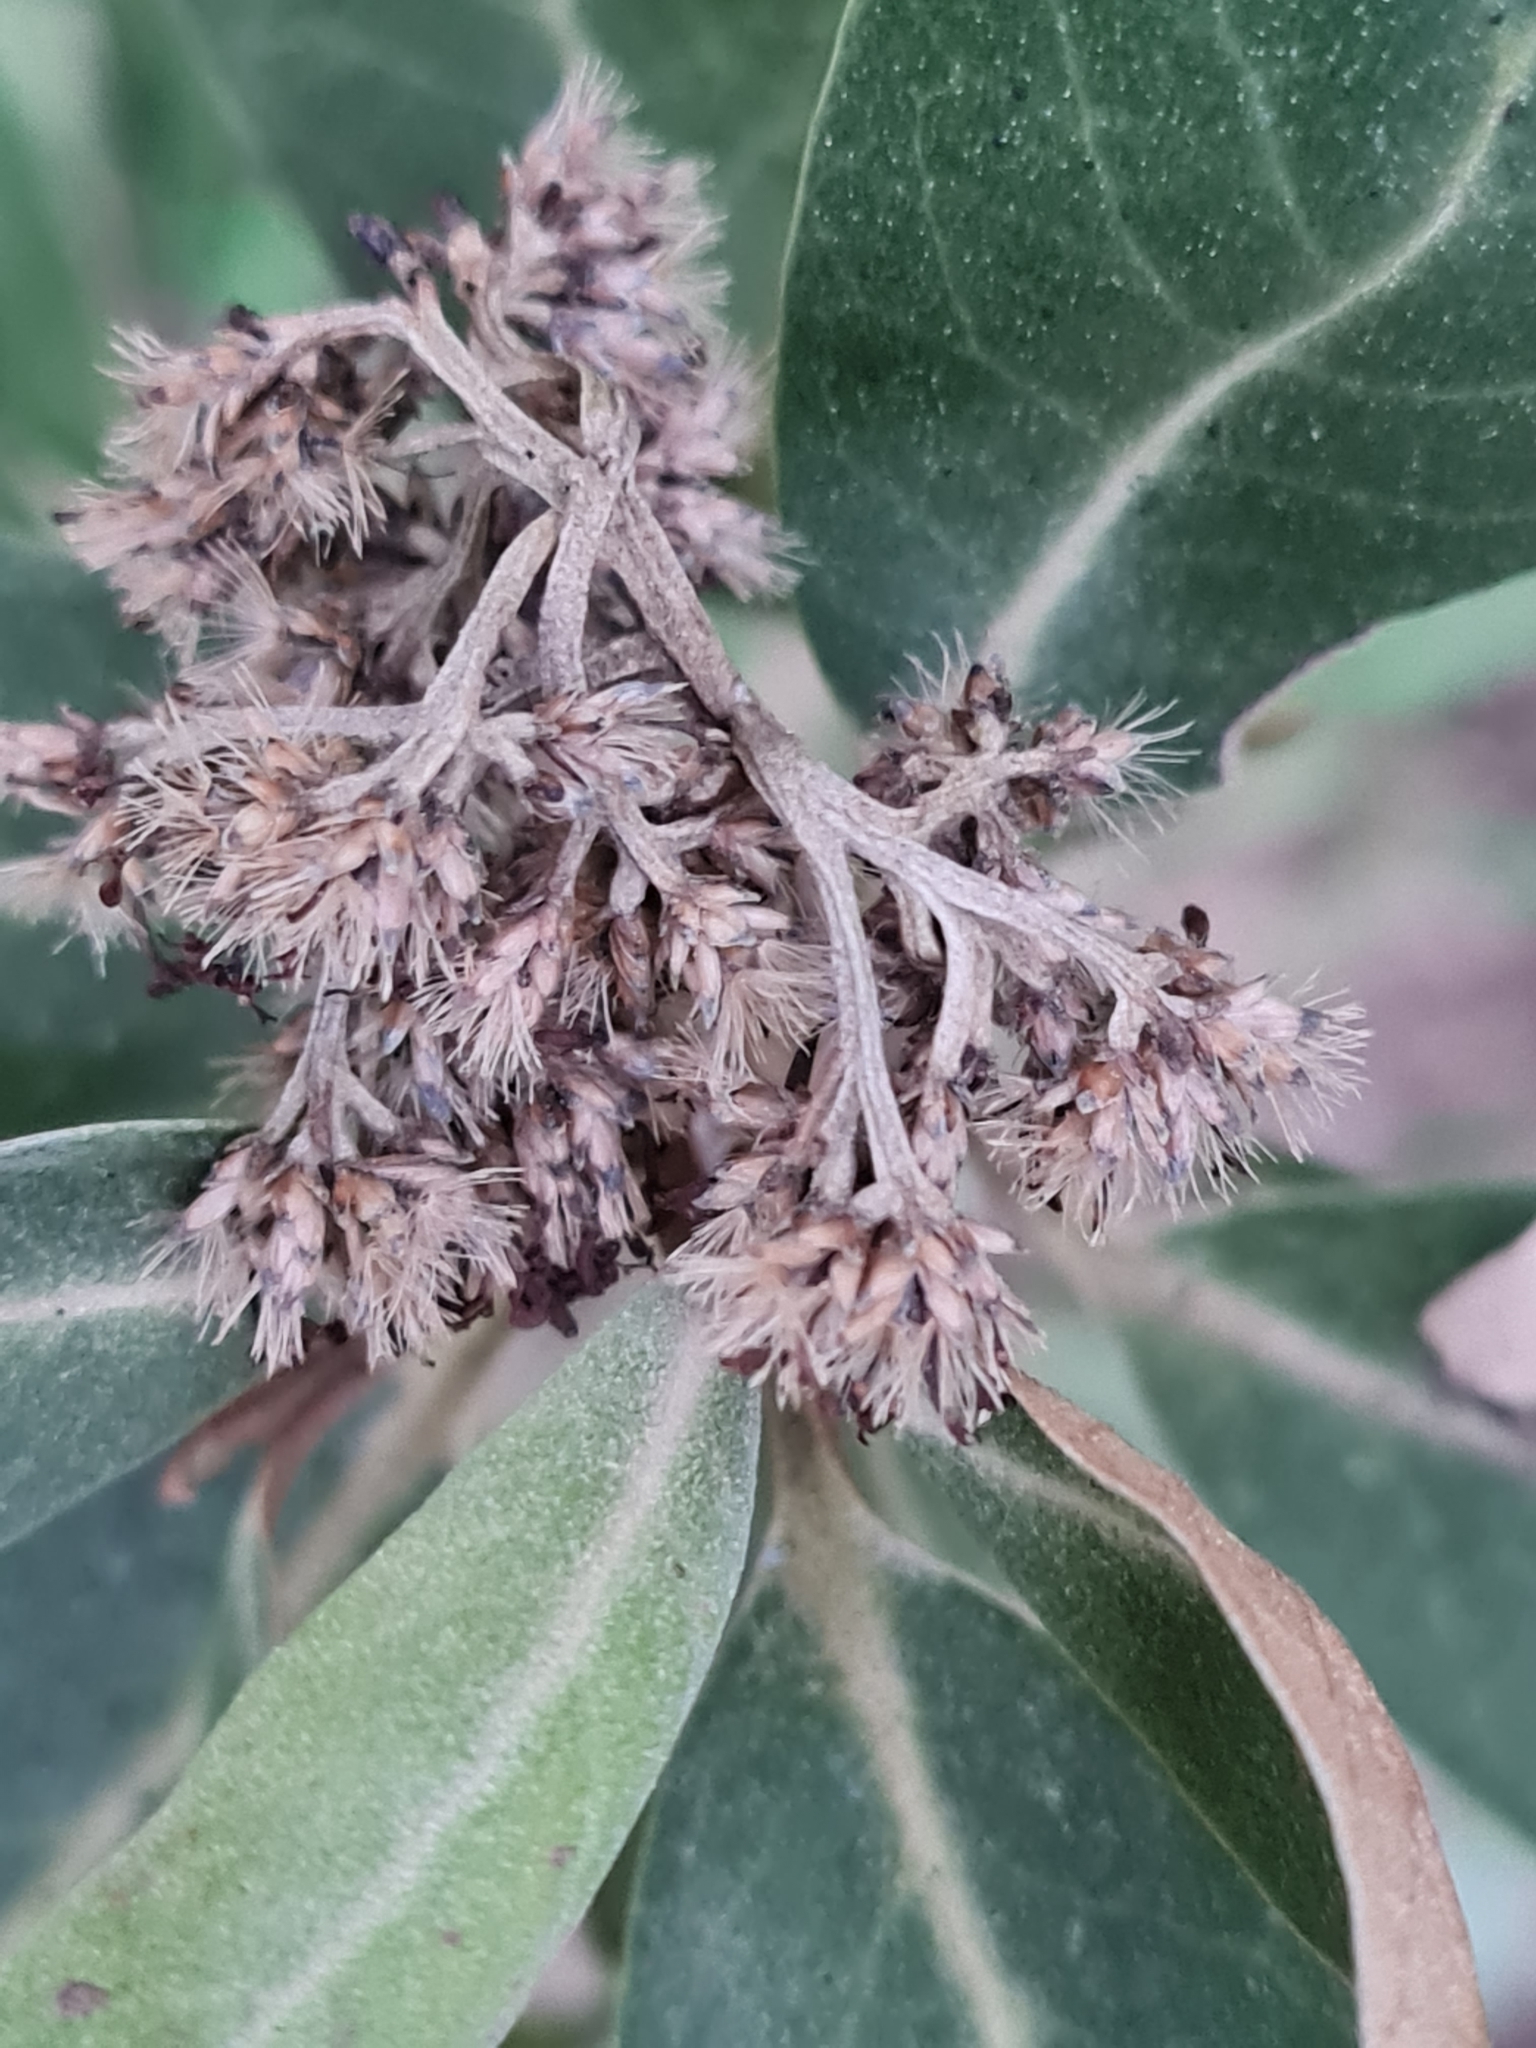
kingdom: Plantae
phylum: Tracheophyta
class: Magnoliopsida
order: Asterales
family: Asteraceae
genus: Olearia
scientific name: Olearia avicenniifolia
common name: Mangrove-leaf daisybush
